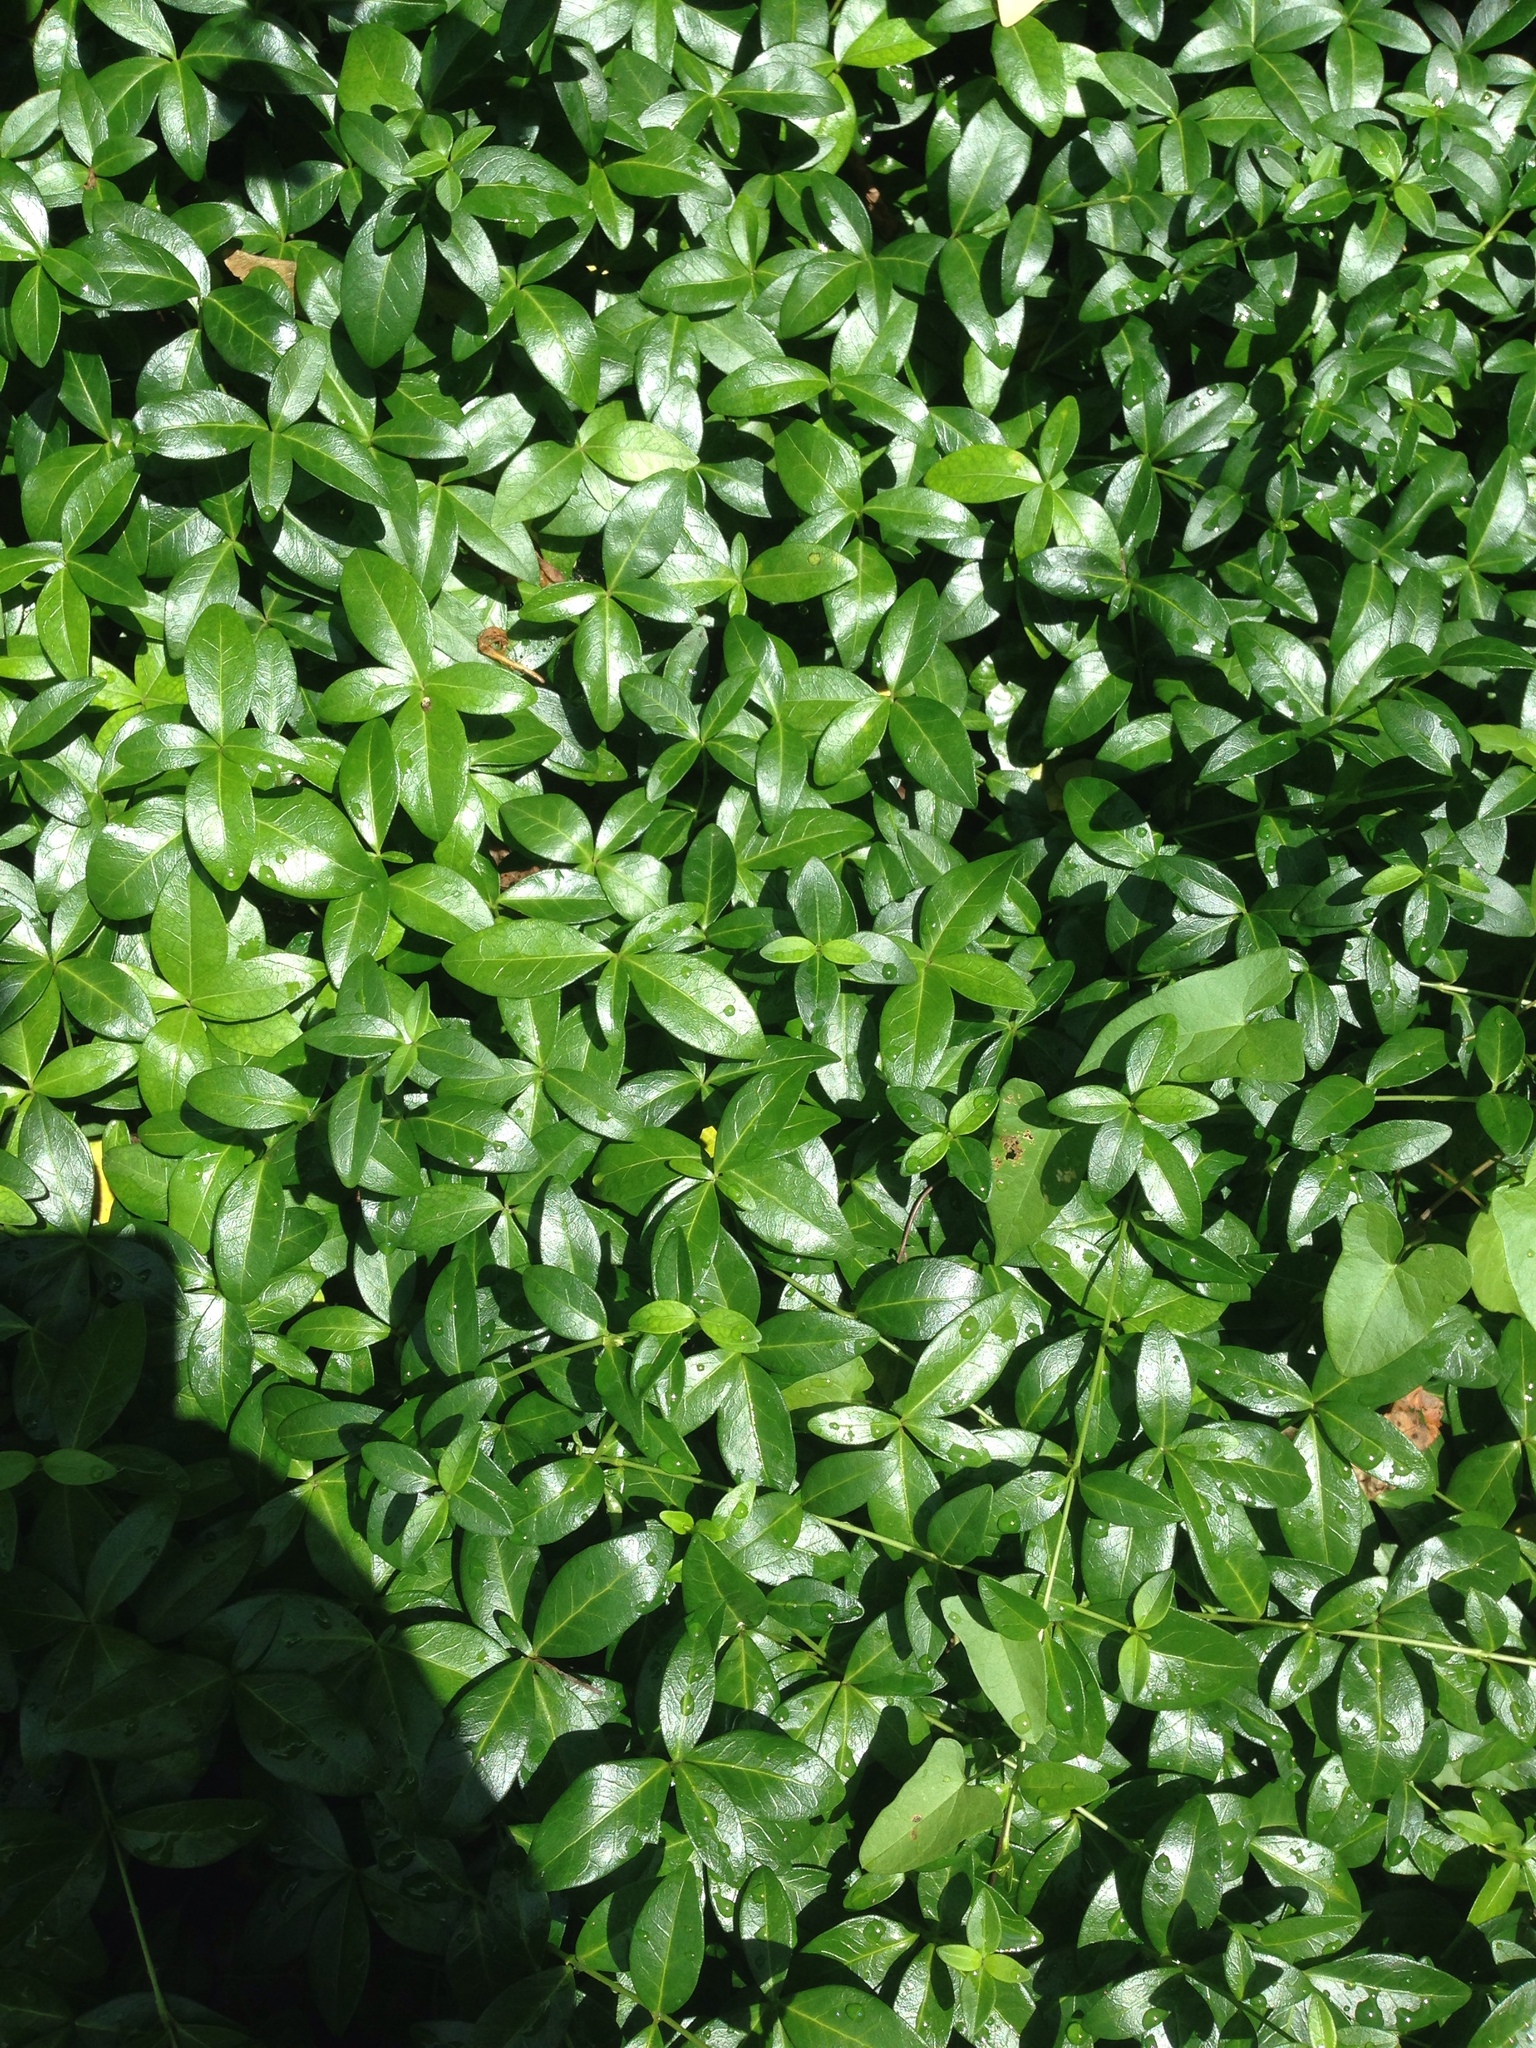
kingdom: Plantae
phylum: Tracheophyta
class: Magnoliopsida
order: Gentianales
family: Apocynaceae
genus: Vinca
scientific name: Vinca minor
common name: Lesser periwinkle
